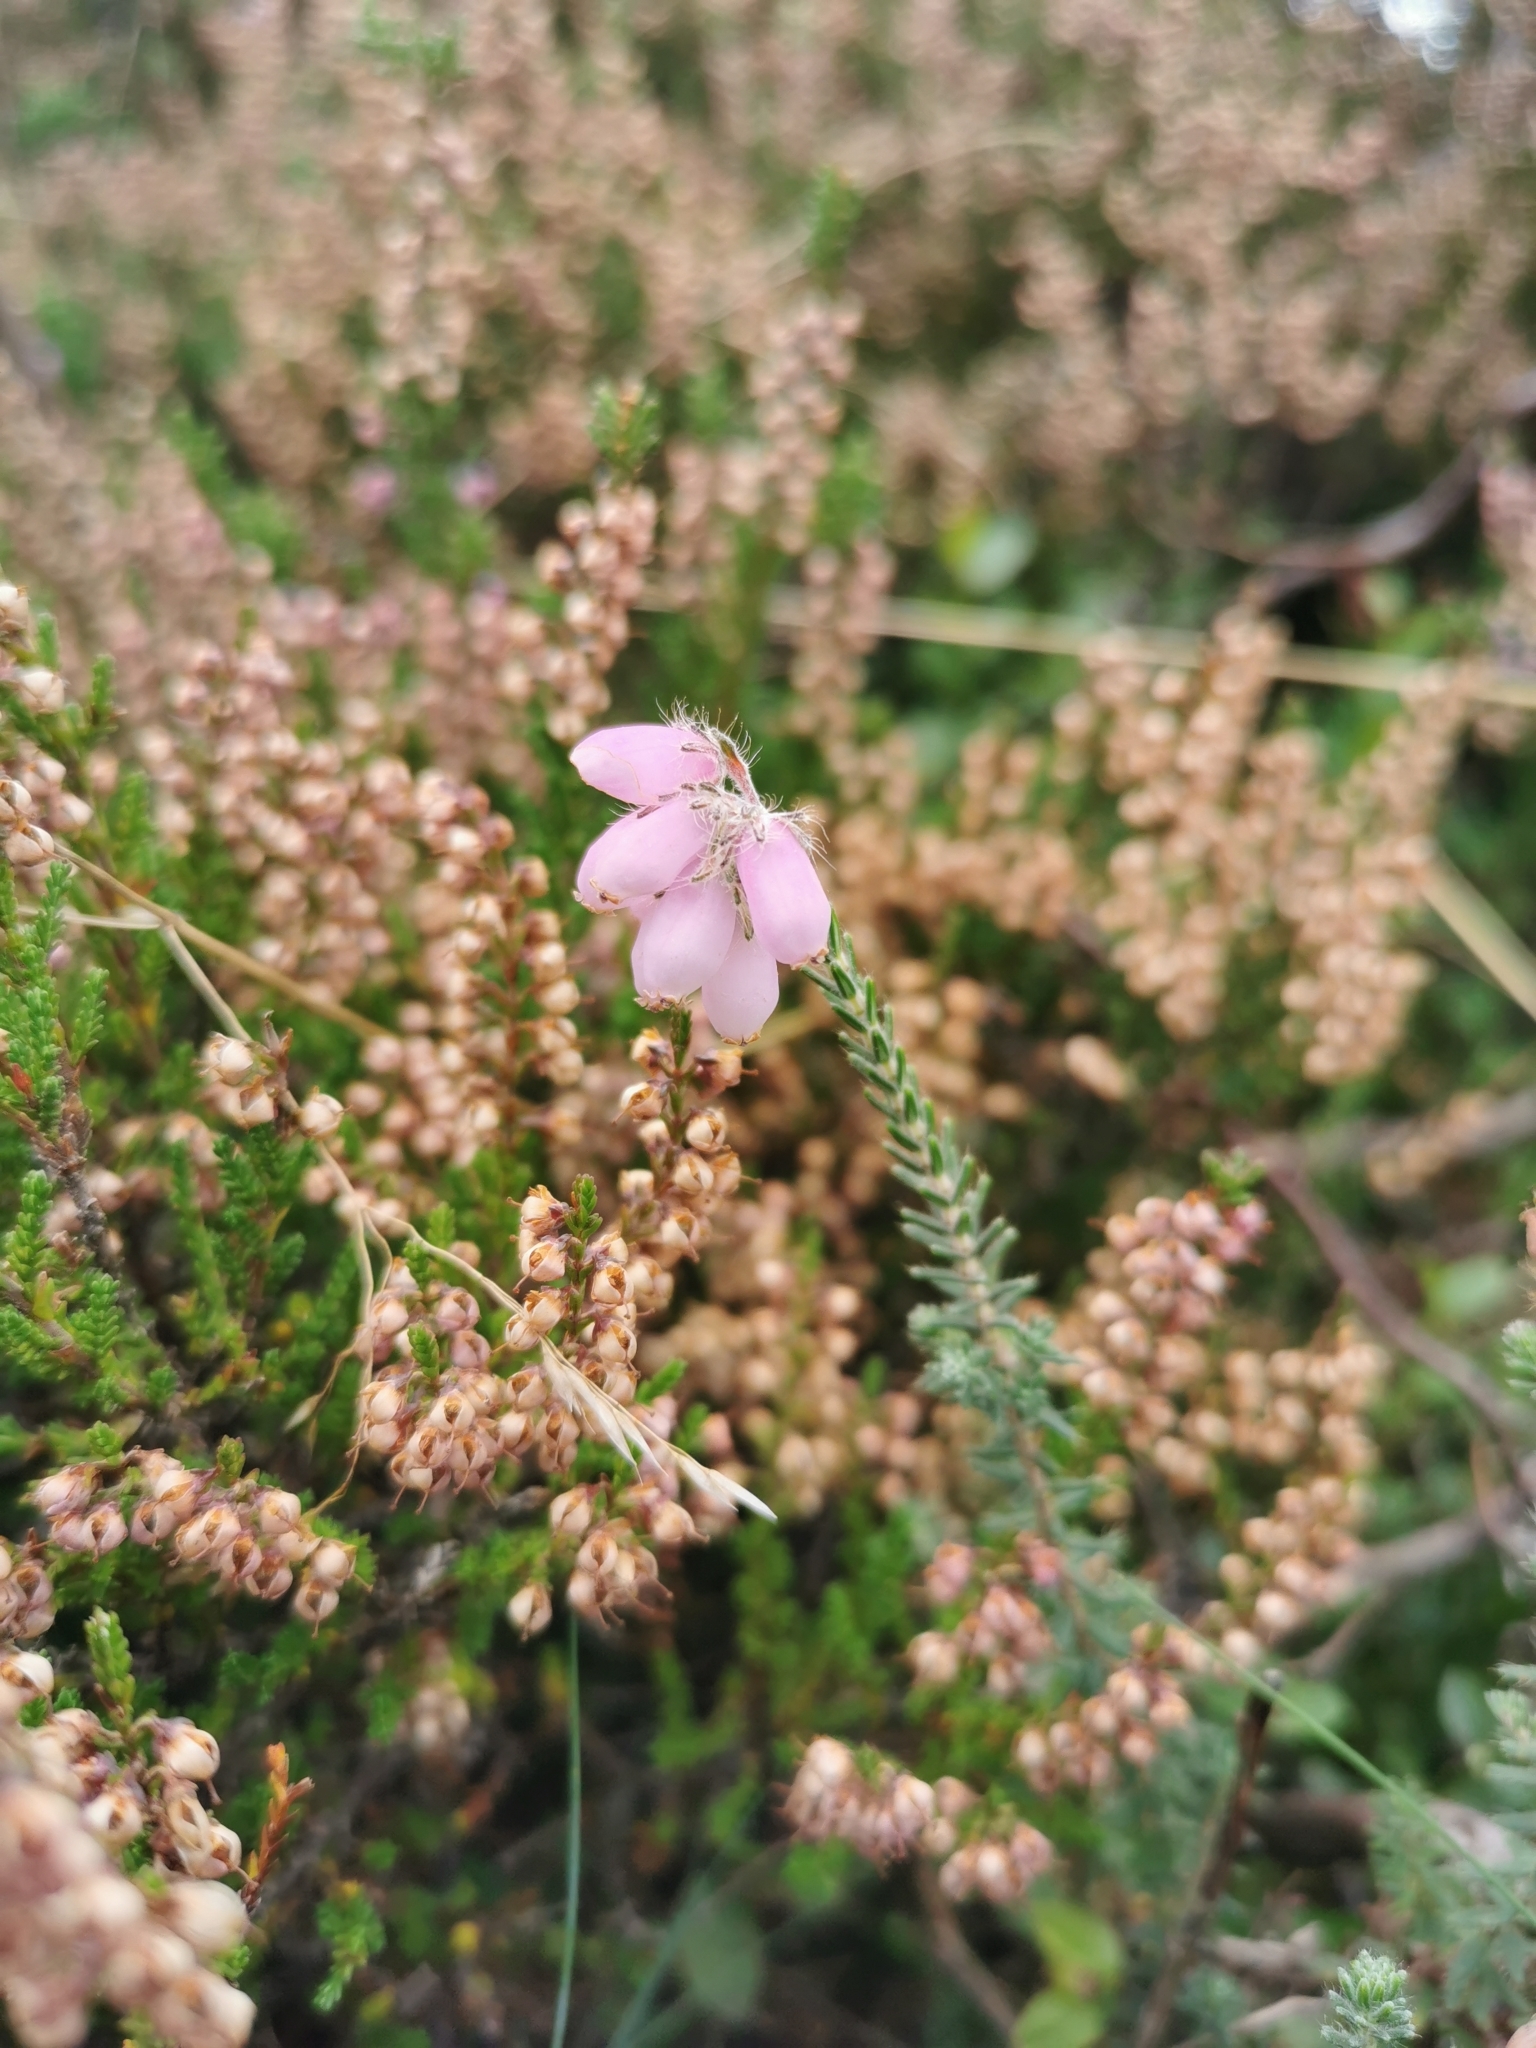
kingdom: Plantae
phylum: Tracheophyta
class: Magnoliopsida
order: Ericales
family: Ericaceae
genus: Erica
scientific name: Erica tetralix
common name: Cross-leaved heath
